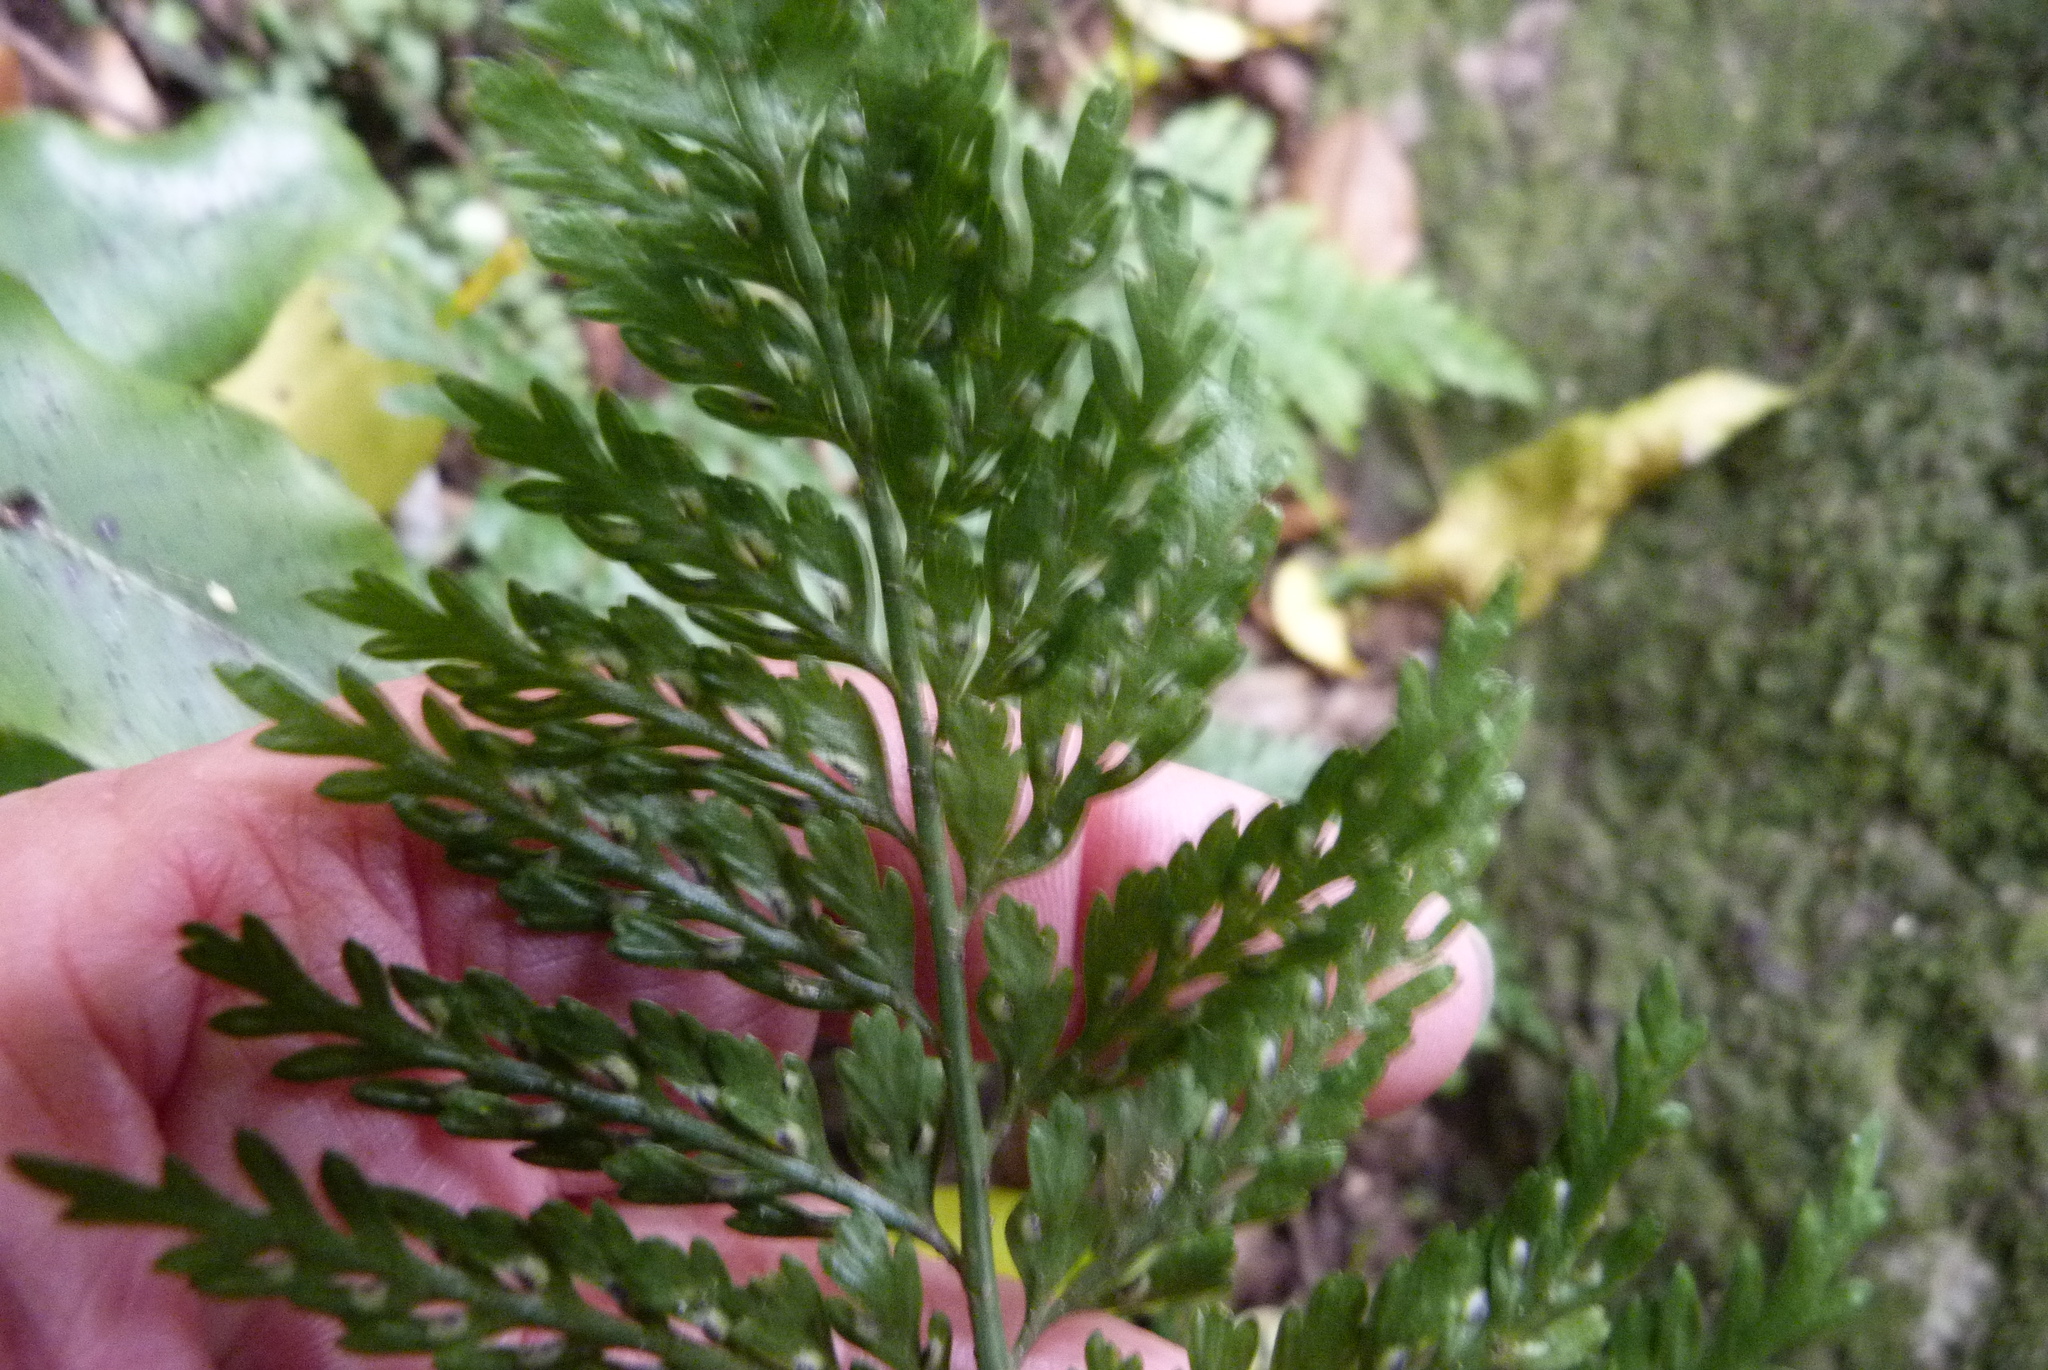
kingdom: Plantae
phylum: Tracheophyta
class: Polypodiopsida
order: Polypodiales
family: Aspleniaceae
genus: Asplenium
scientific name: Asplenium
